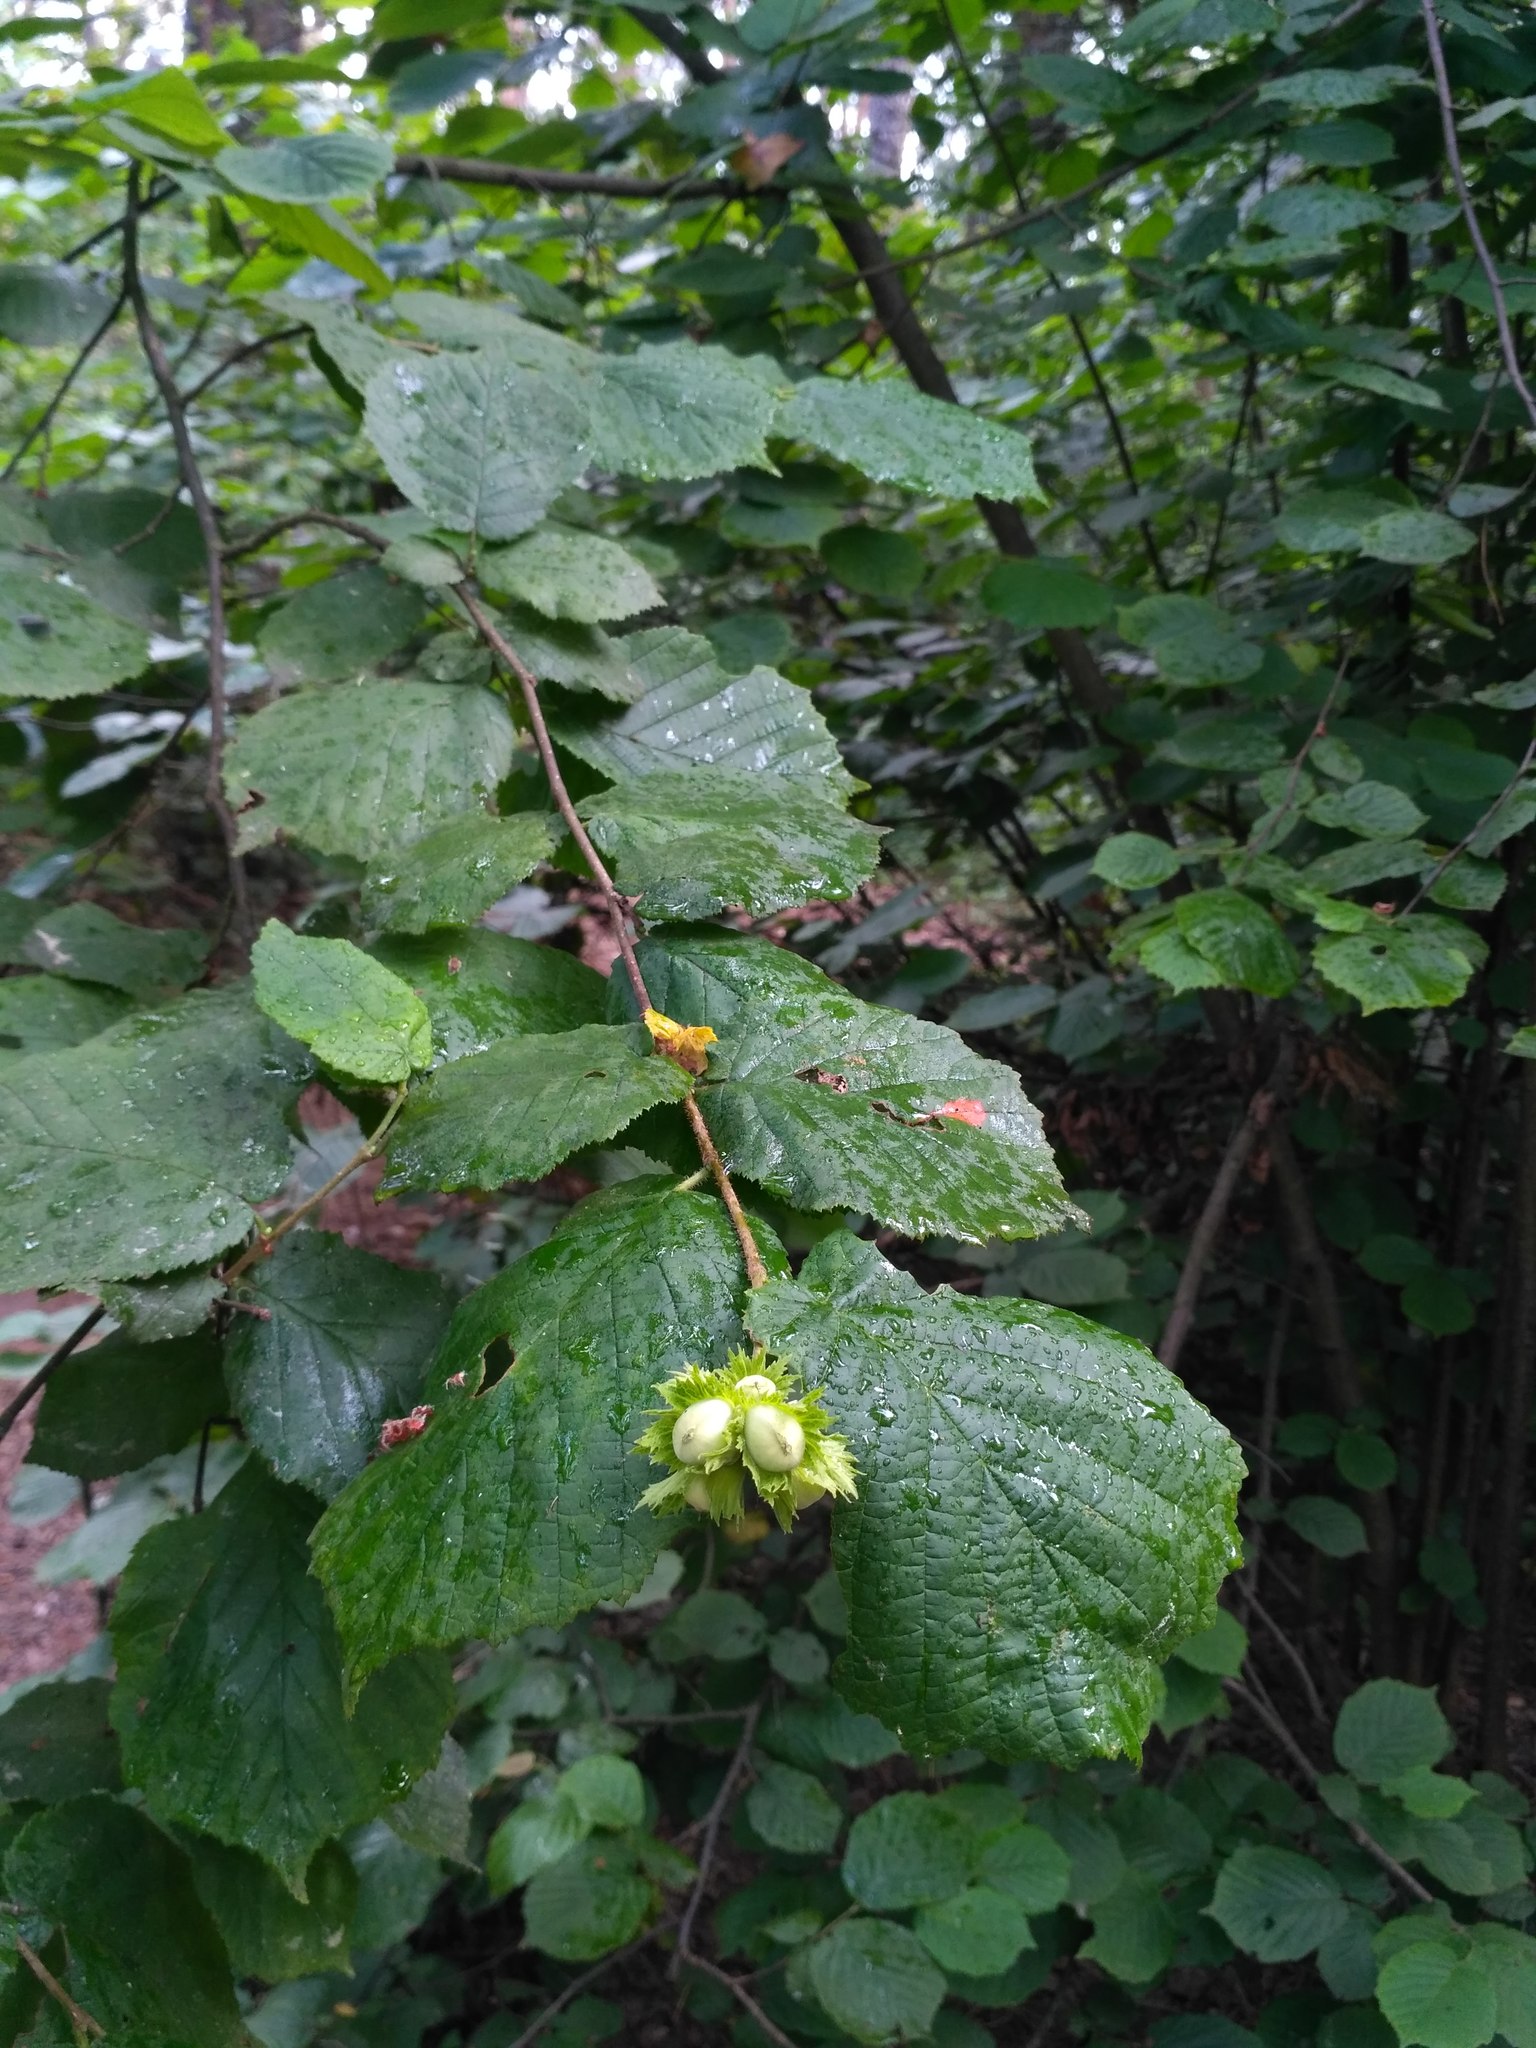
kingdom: Plantae
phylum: Tracheophyta
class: Magnoliopsida
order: Fagales
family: Betulaceae
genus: Corylus
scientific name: Corylus avellana
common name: European hazel
